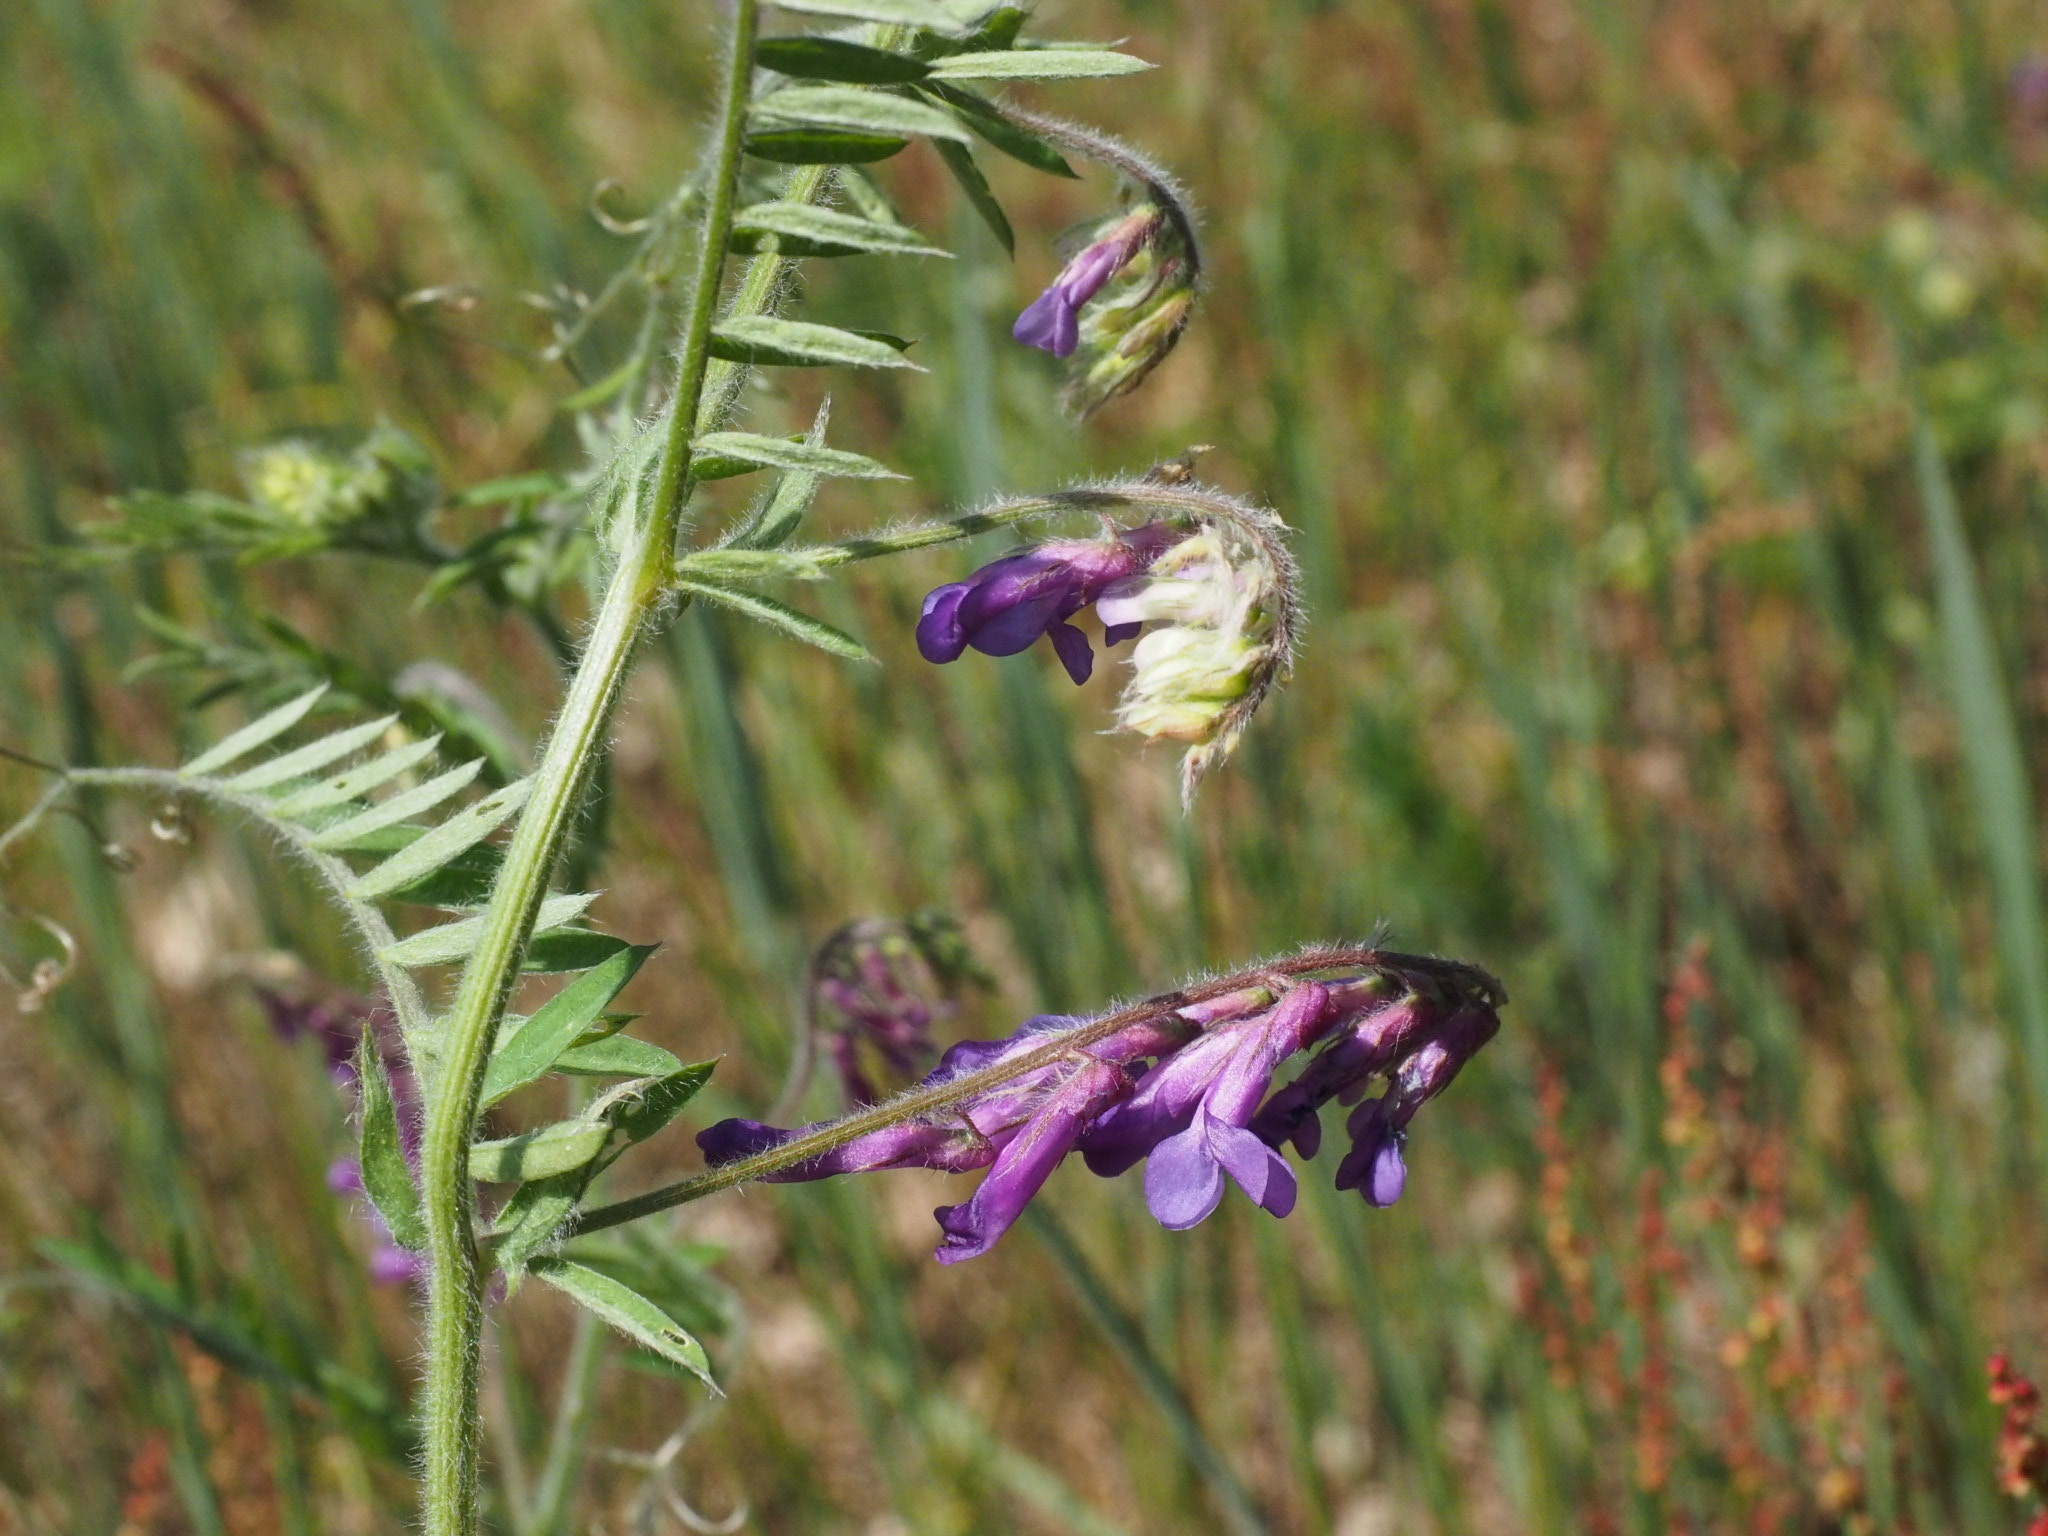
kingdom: Plantae
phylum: Tracheophyta
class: Magnoliopsida
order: Fabales
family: Fabaceae
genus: Vicia
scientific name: Vicia villosa
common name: Fodder vetch
